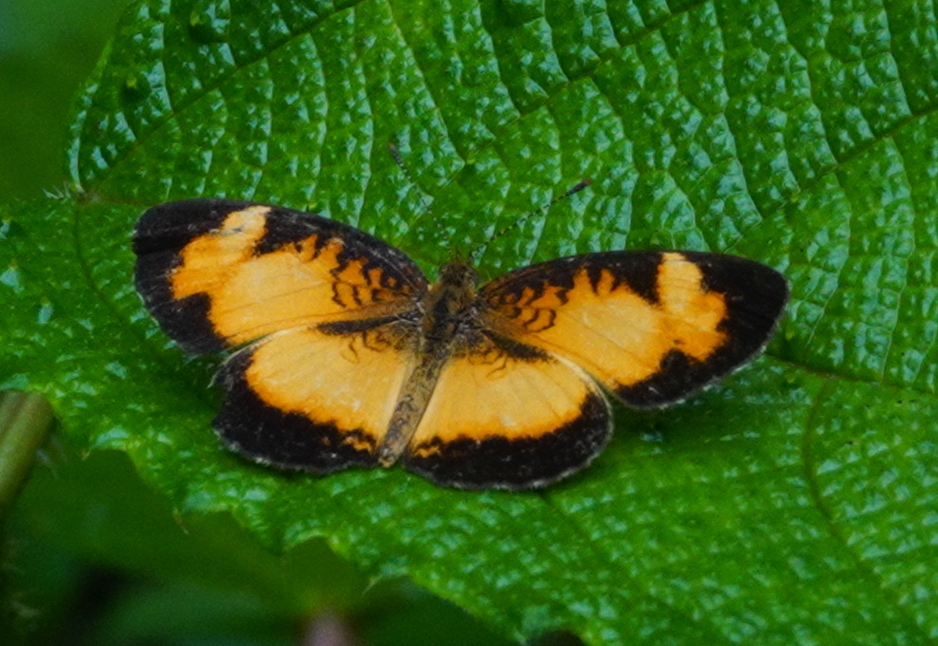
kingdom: Animalia
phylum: Arthropoda
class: Insecta
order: Lepidoptera
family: Nymphalidae
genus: Ortilia
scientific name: Ortilia gentina
